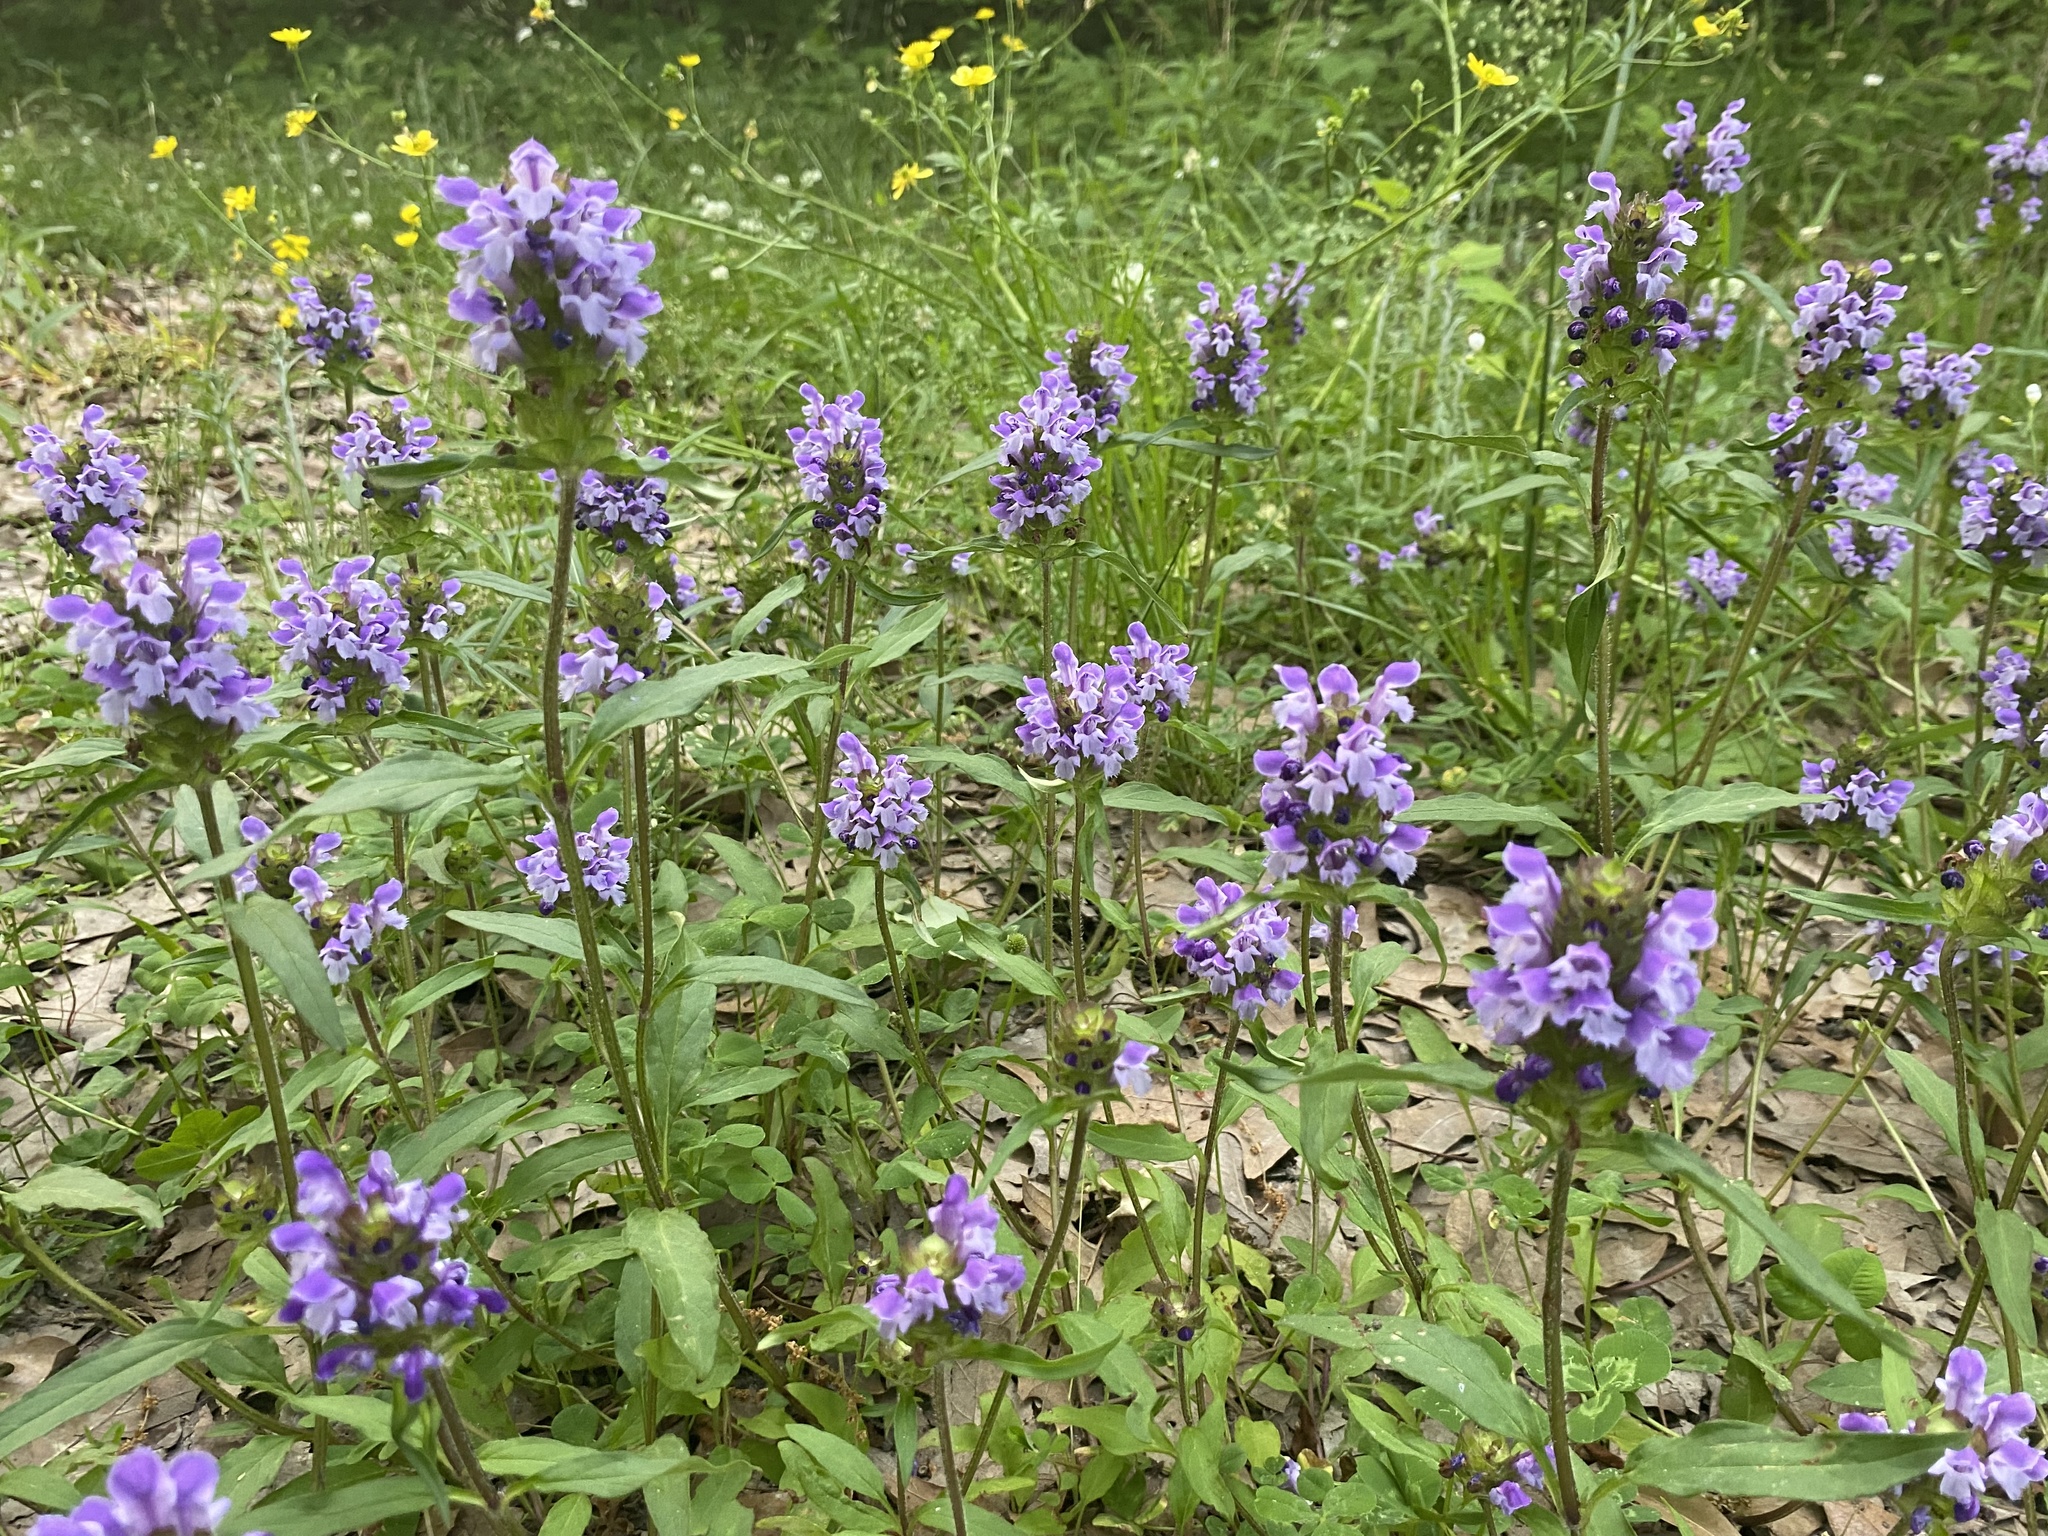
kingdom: Plantae
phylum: Tracheophyta
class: Magnoliopsida
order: Lamiales
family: Lamiaceae
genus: Prunella
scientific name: Prunella vulgaris
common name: Heal-all
